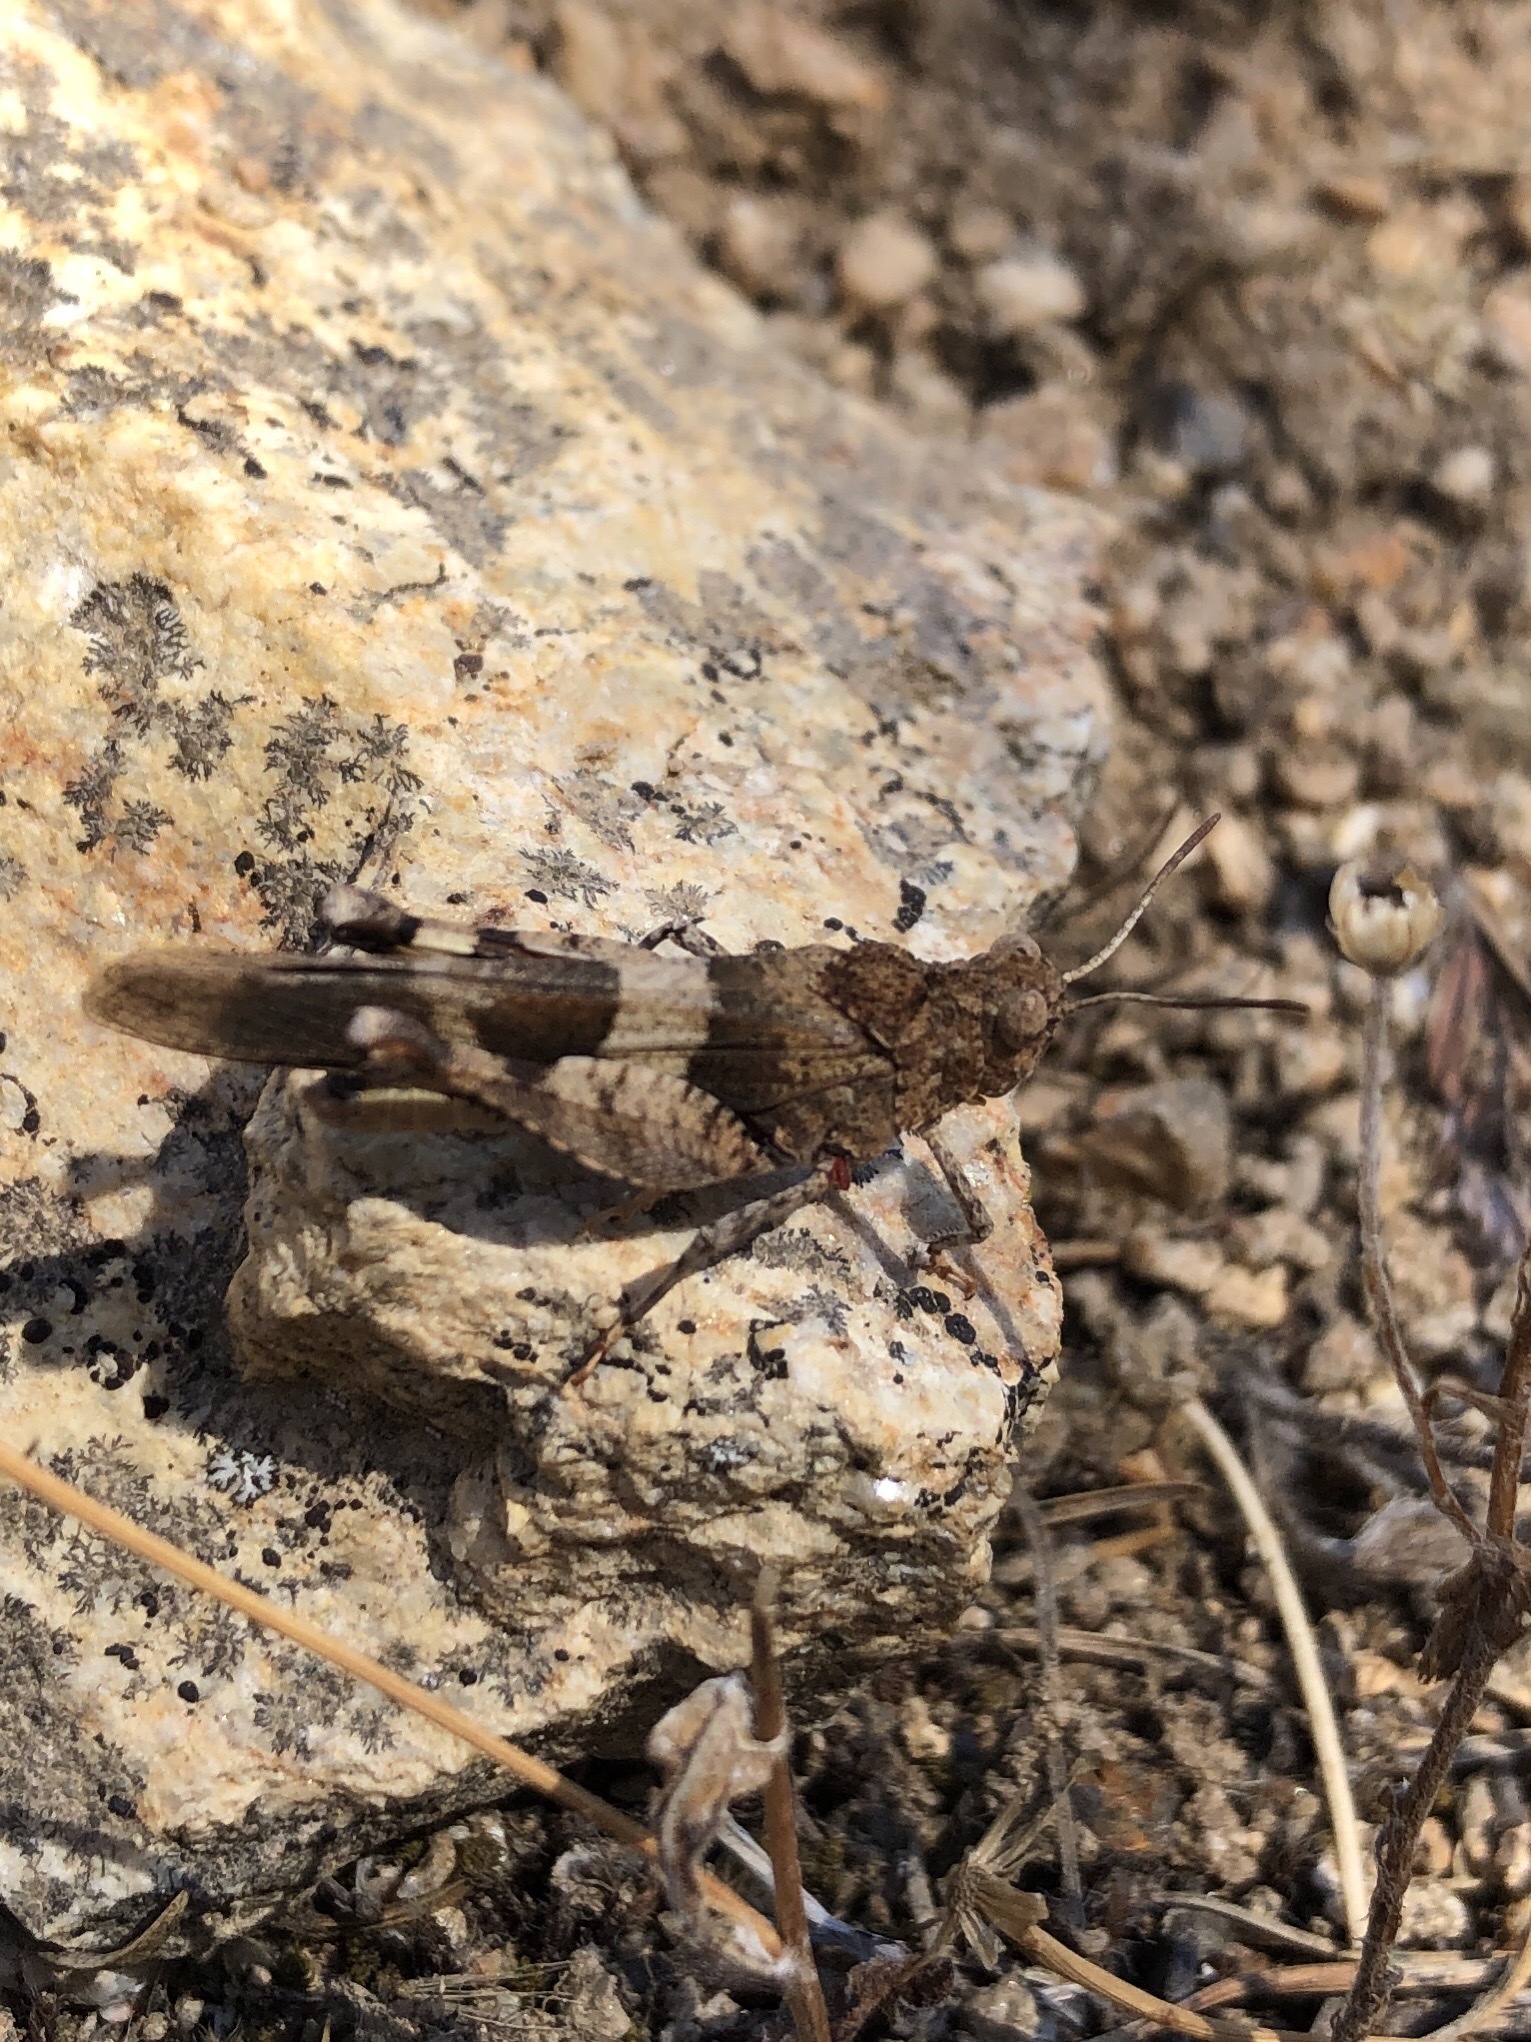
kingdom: Animalia
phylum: Arthropoda
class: Insecta
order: Orthoptera
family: Acrididae
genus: Oedipoda
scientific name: Oedipoda caerulescens
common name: Blue-winged grasshopper
